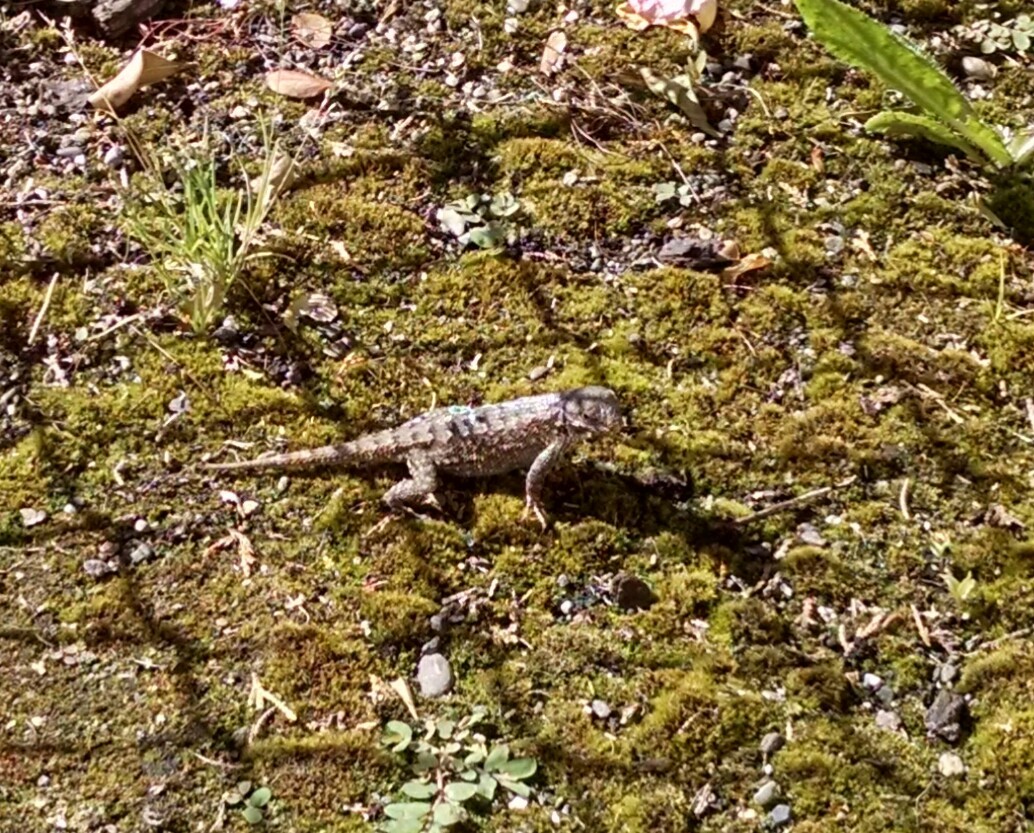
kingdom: Animalia
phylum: Chordata
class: Squamata
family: Phrynosomatidae
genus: Sceloporus
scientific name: Sceloporus occidentalis
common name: Western fence lizard
